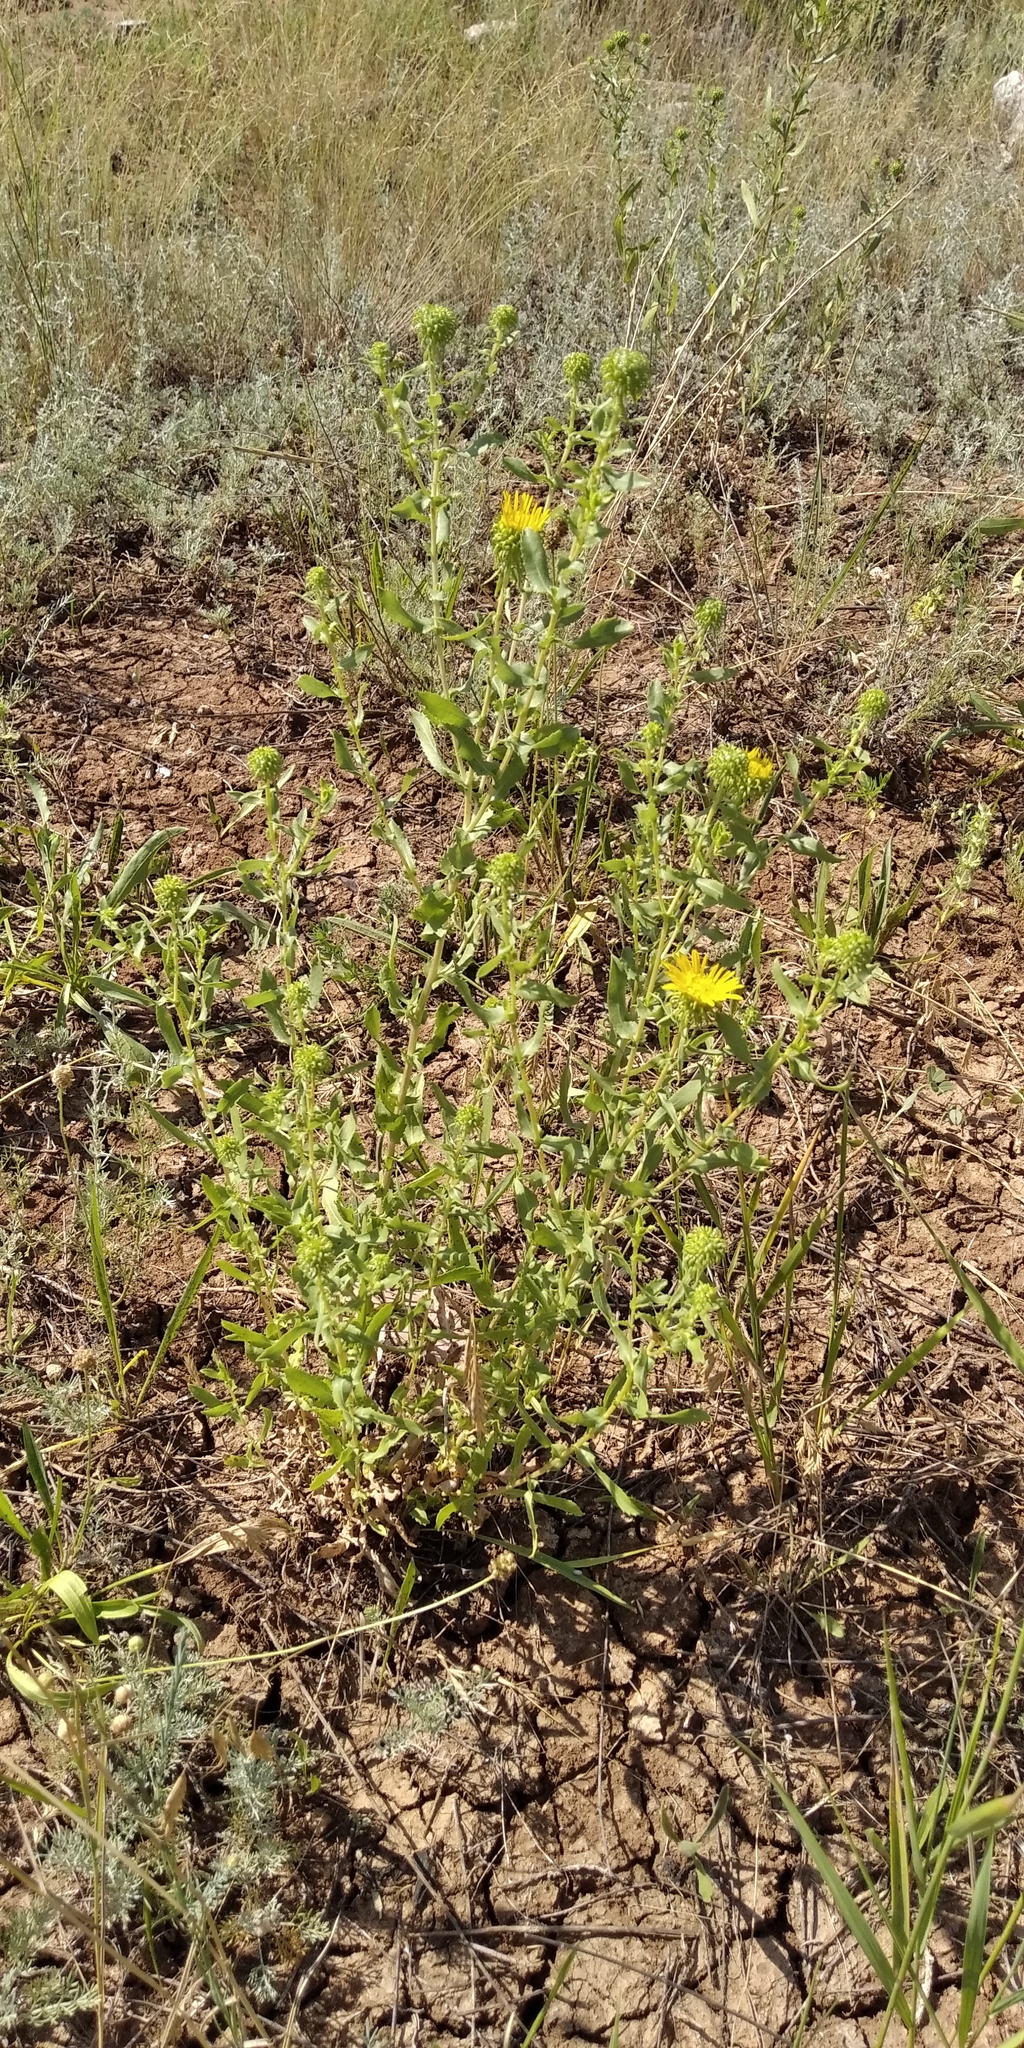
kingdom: Plantae
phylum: Tracheophyta
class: Magnoliopsida
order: Asterales
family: Asteraceae
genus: Grindelia
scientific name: Grindelia squarrosa
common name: Curly-cup gumweed
